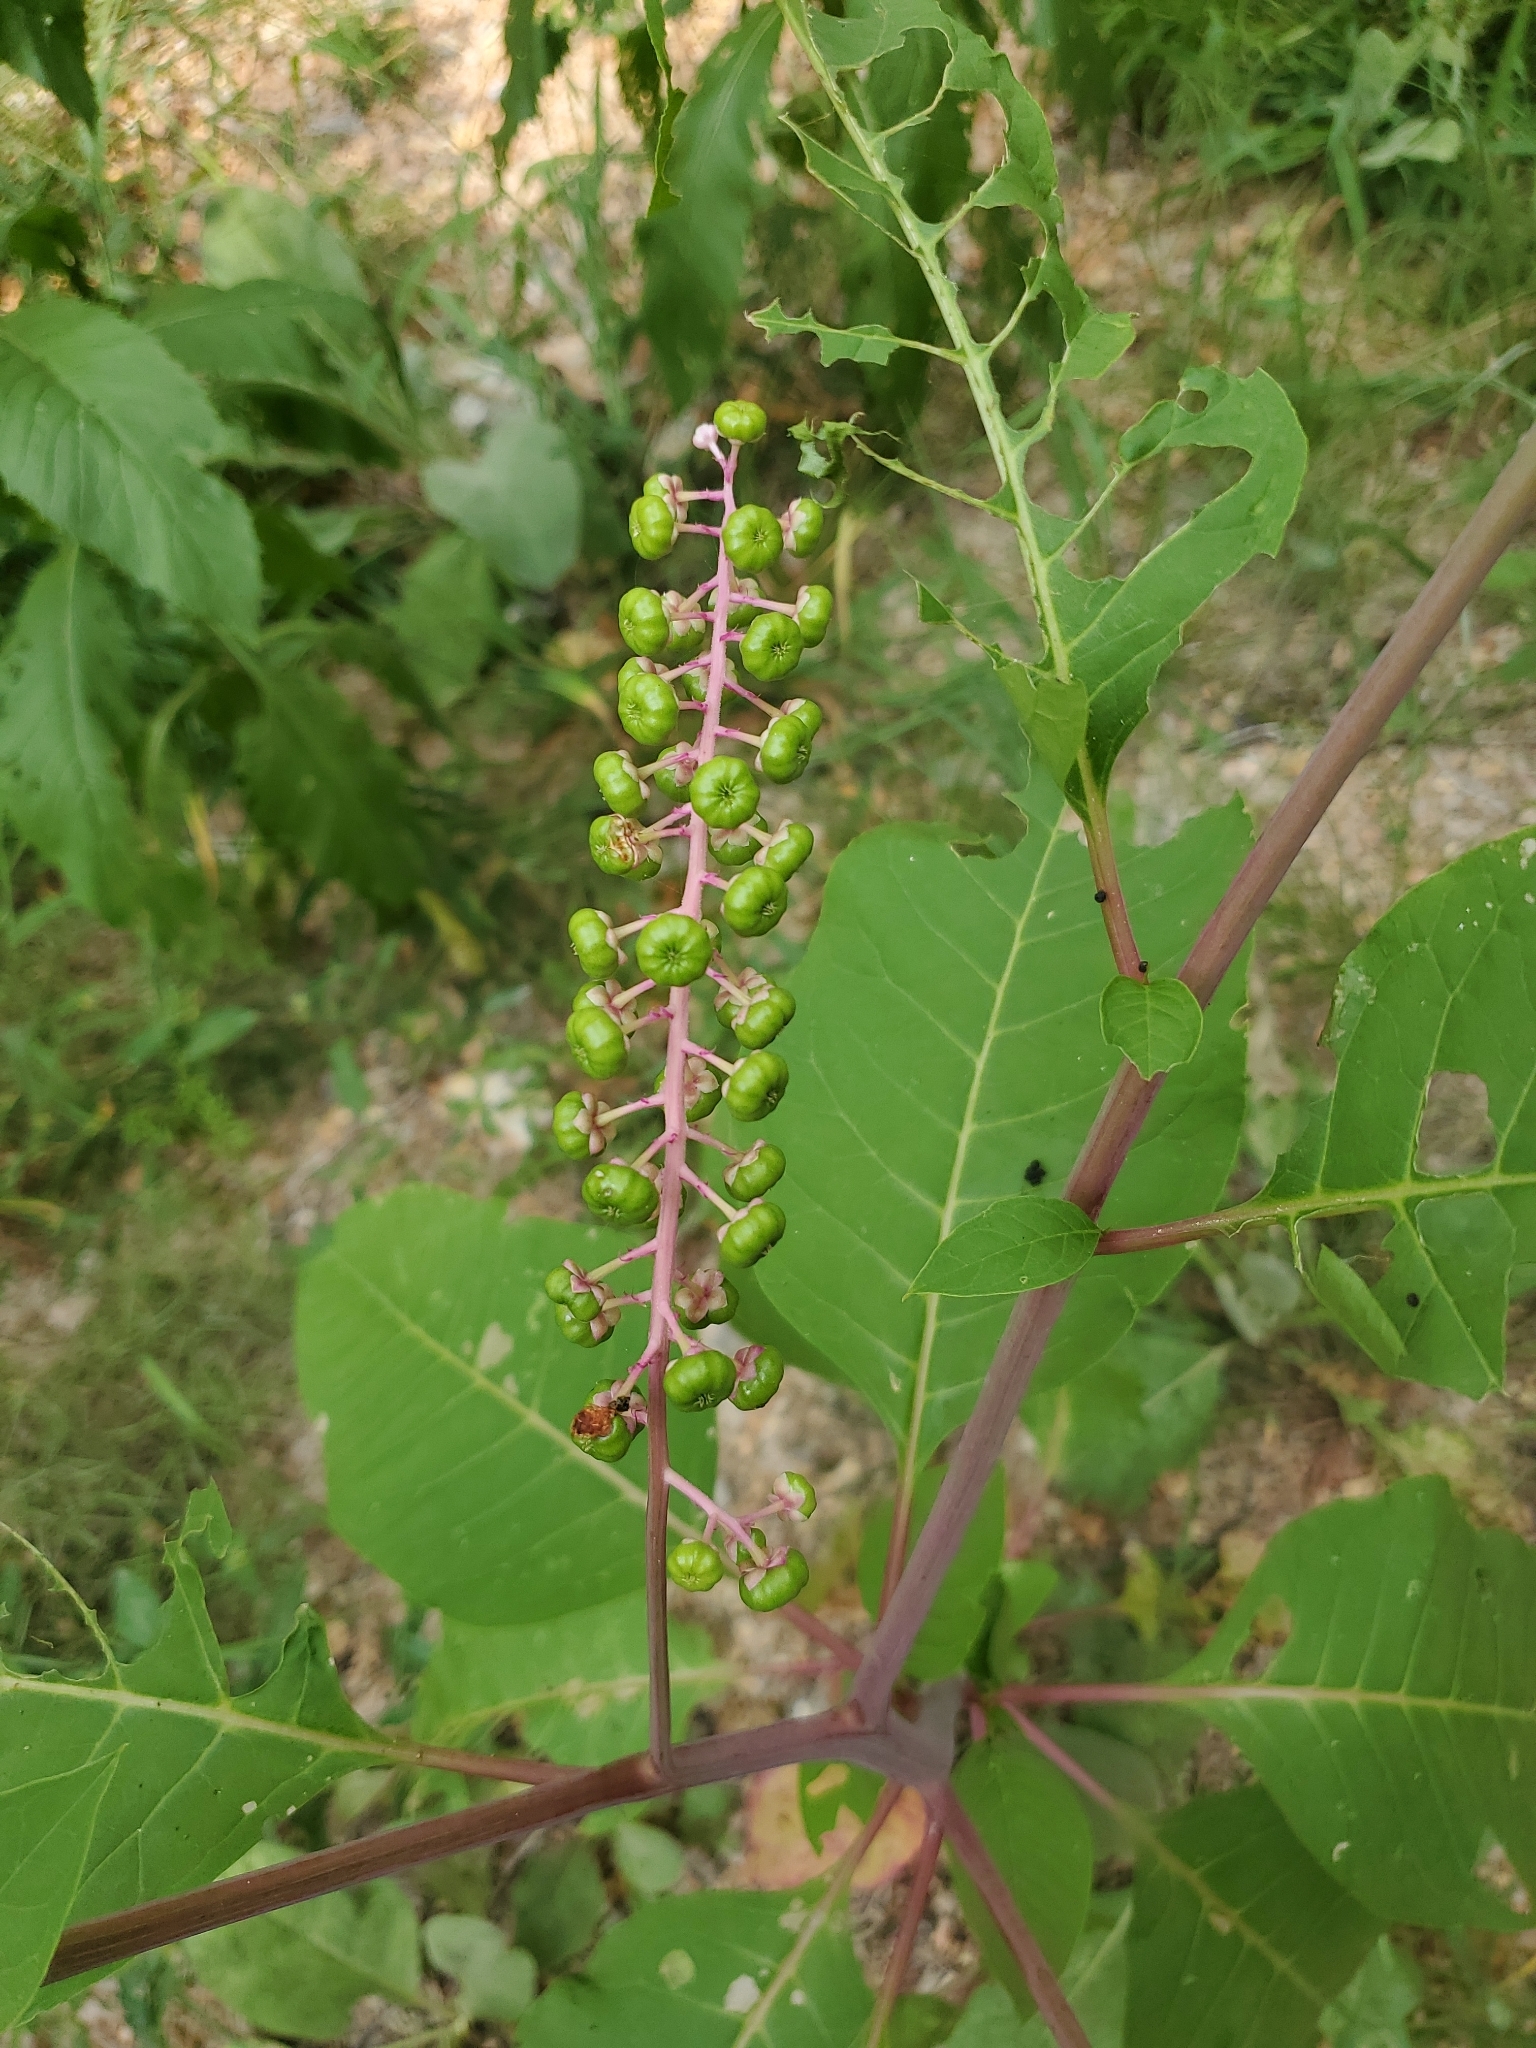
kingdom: Plantae
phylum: Tracheophyta
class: Magnoliopsida
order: Caryophyllales
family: Phytolaccaceae
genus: Phytolacca
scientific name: Phytolacca americana
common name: American pokeweed
